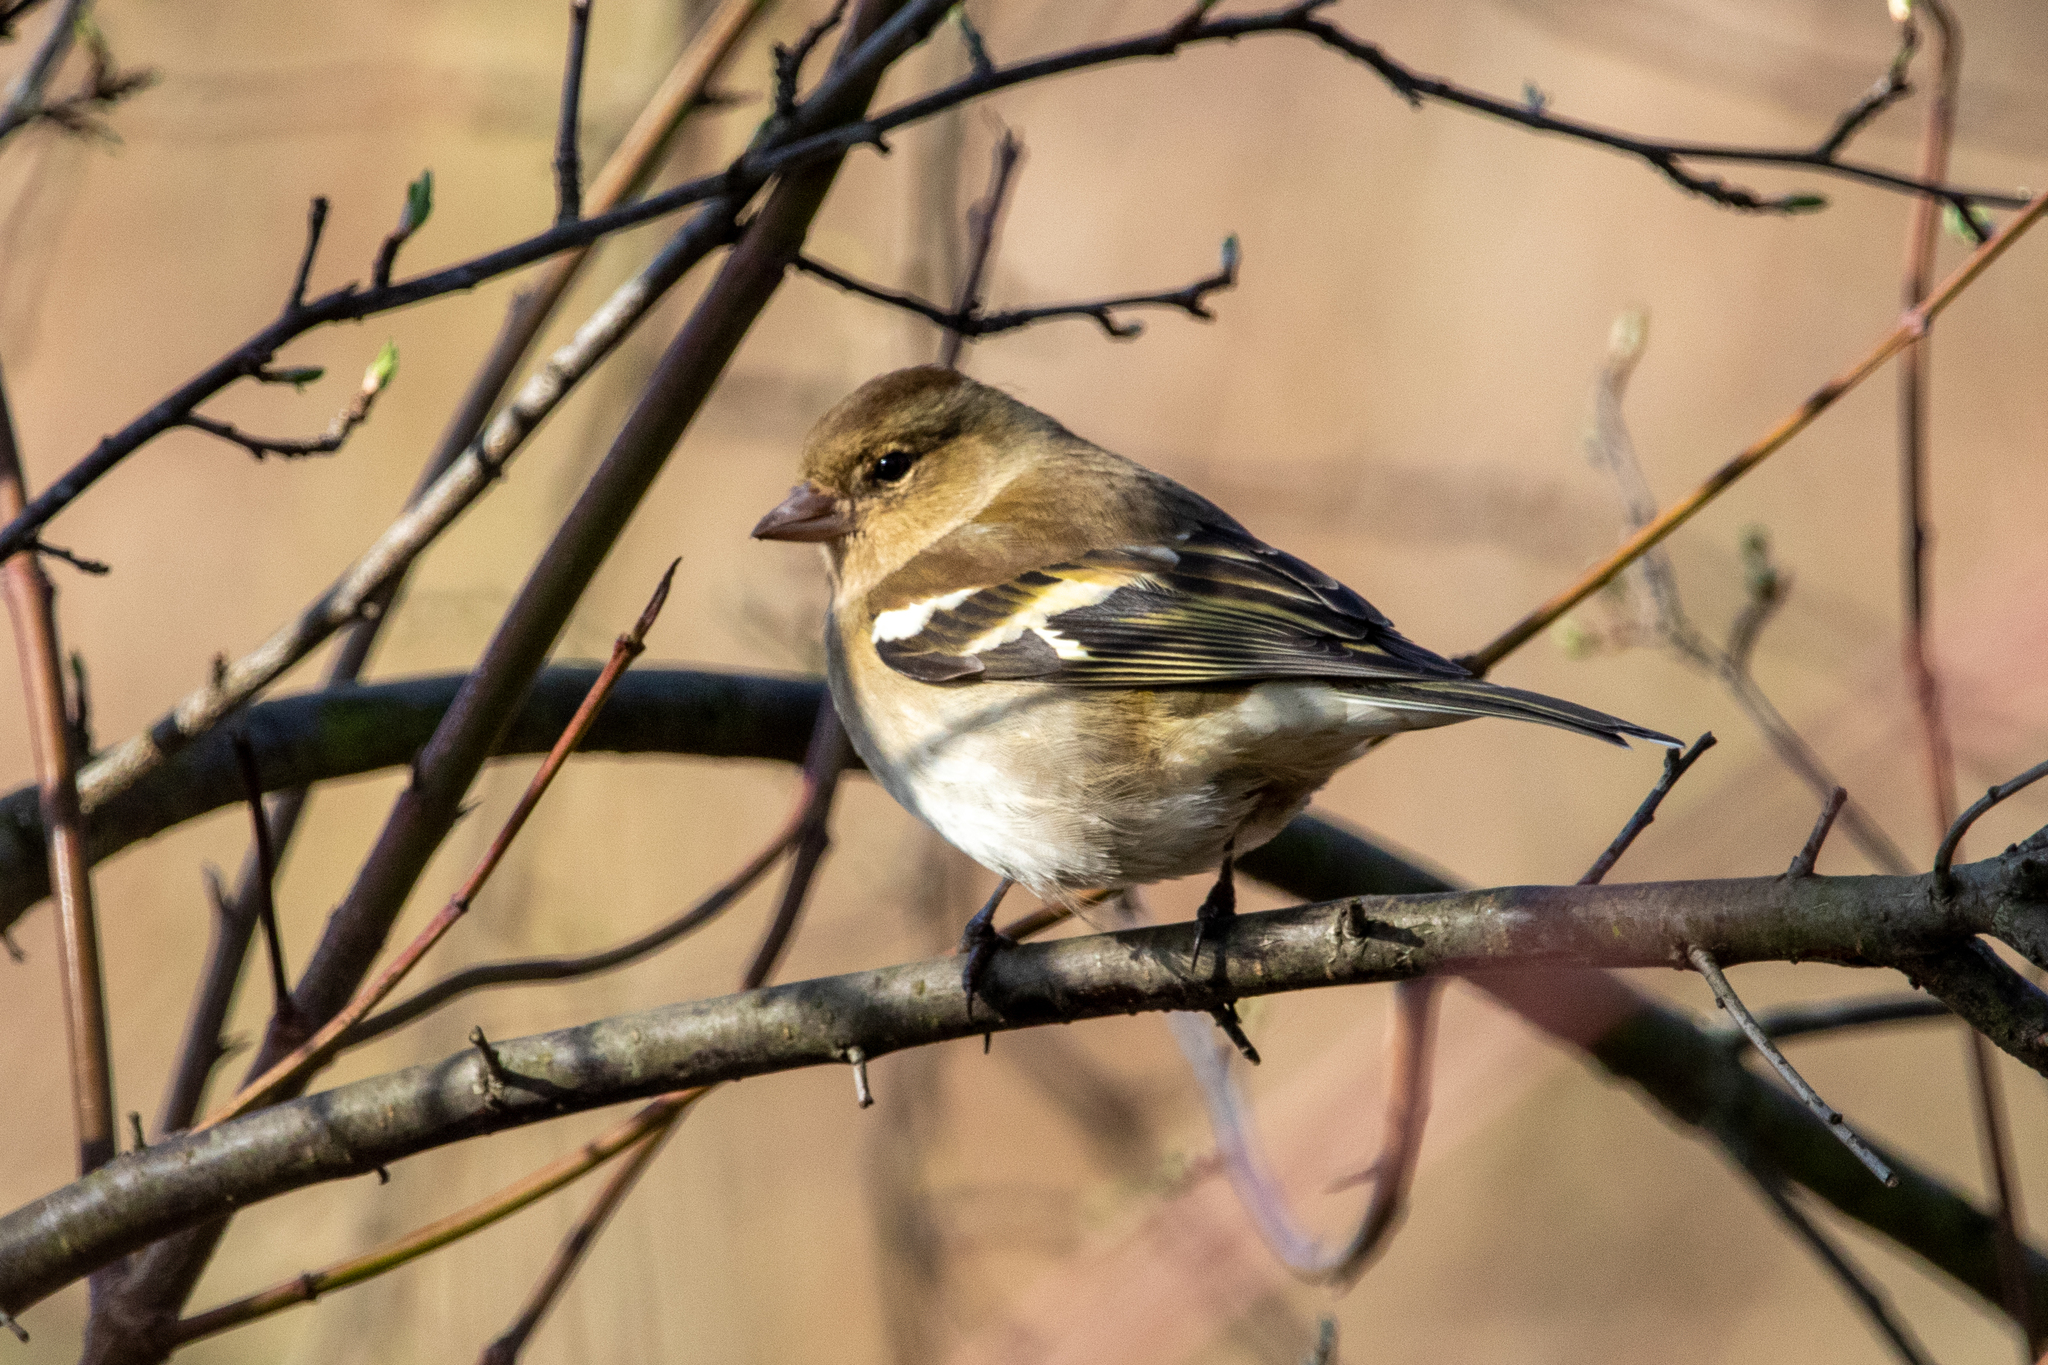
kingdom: Animalia
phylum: Chordata
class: Aves
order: Passeriformes
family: Fringillidae
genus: Fringilla
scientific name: Fringilla coelebs
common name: Common chaffinch
